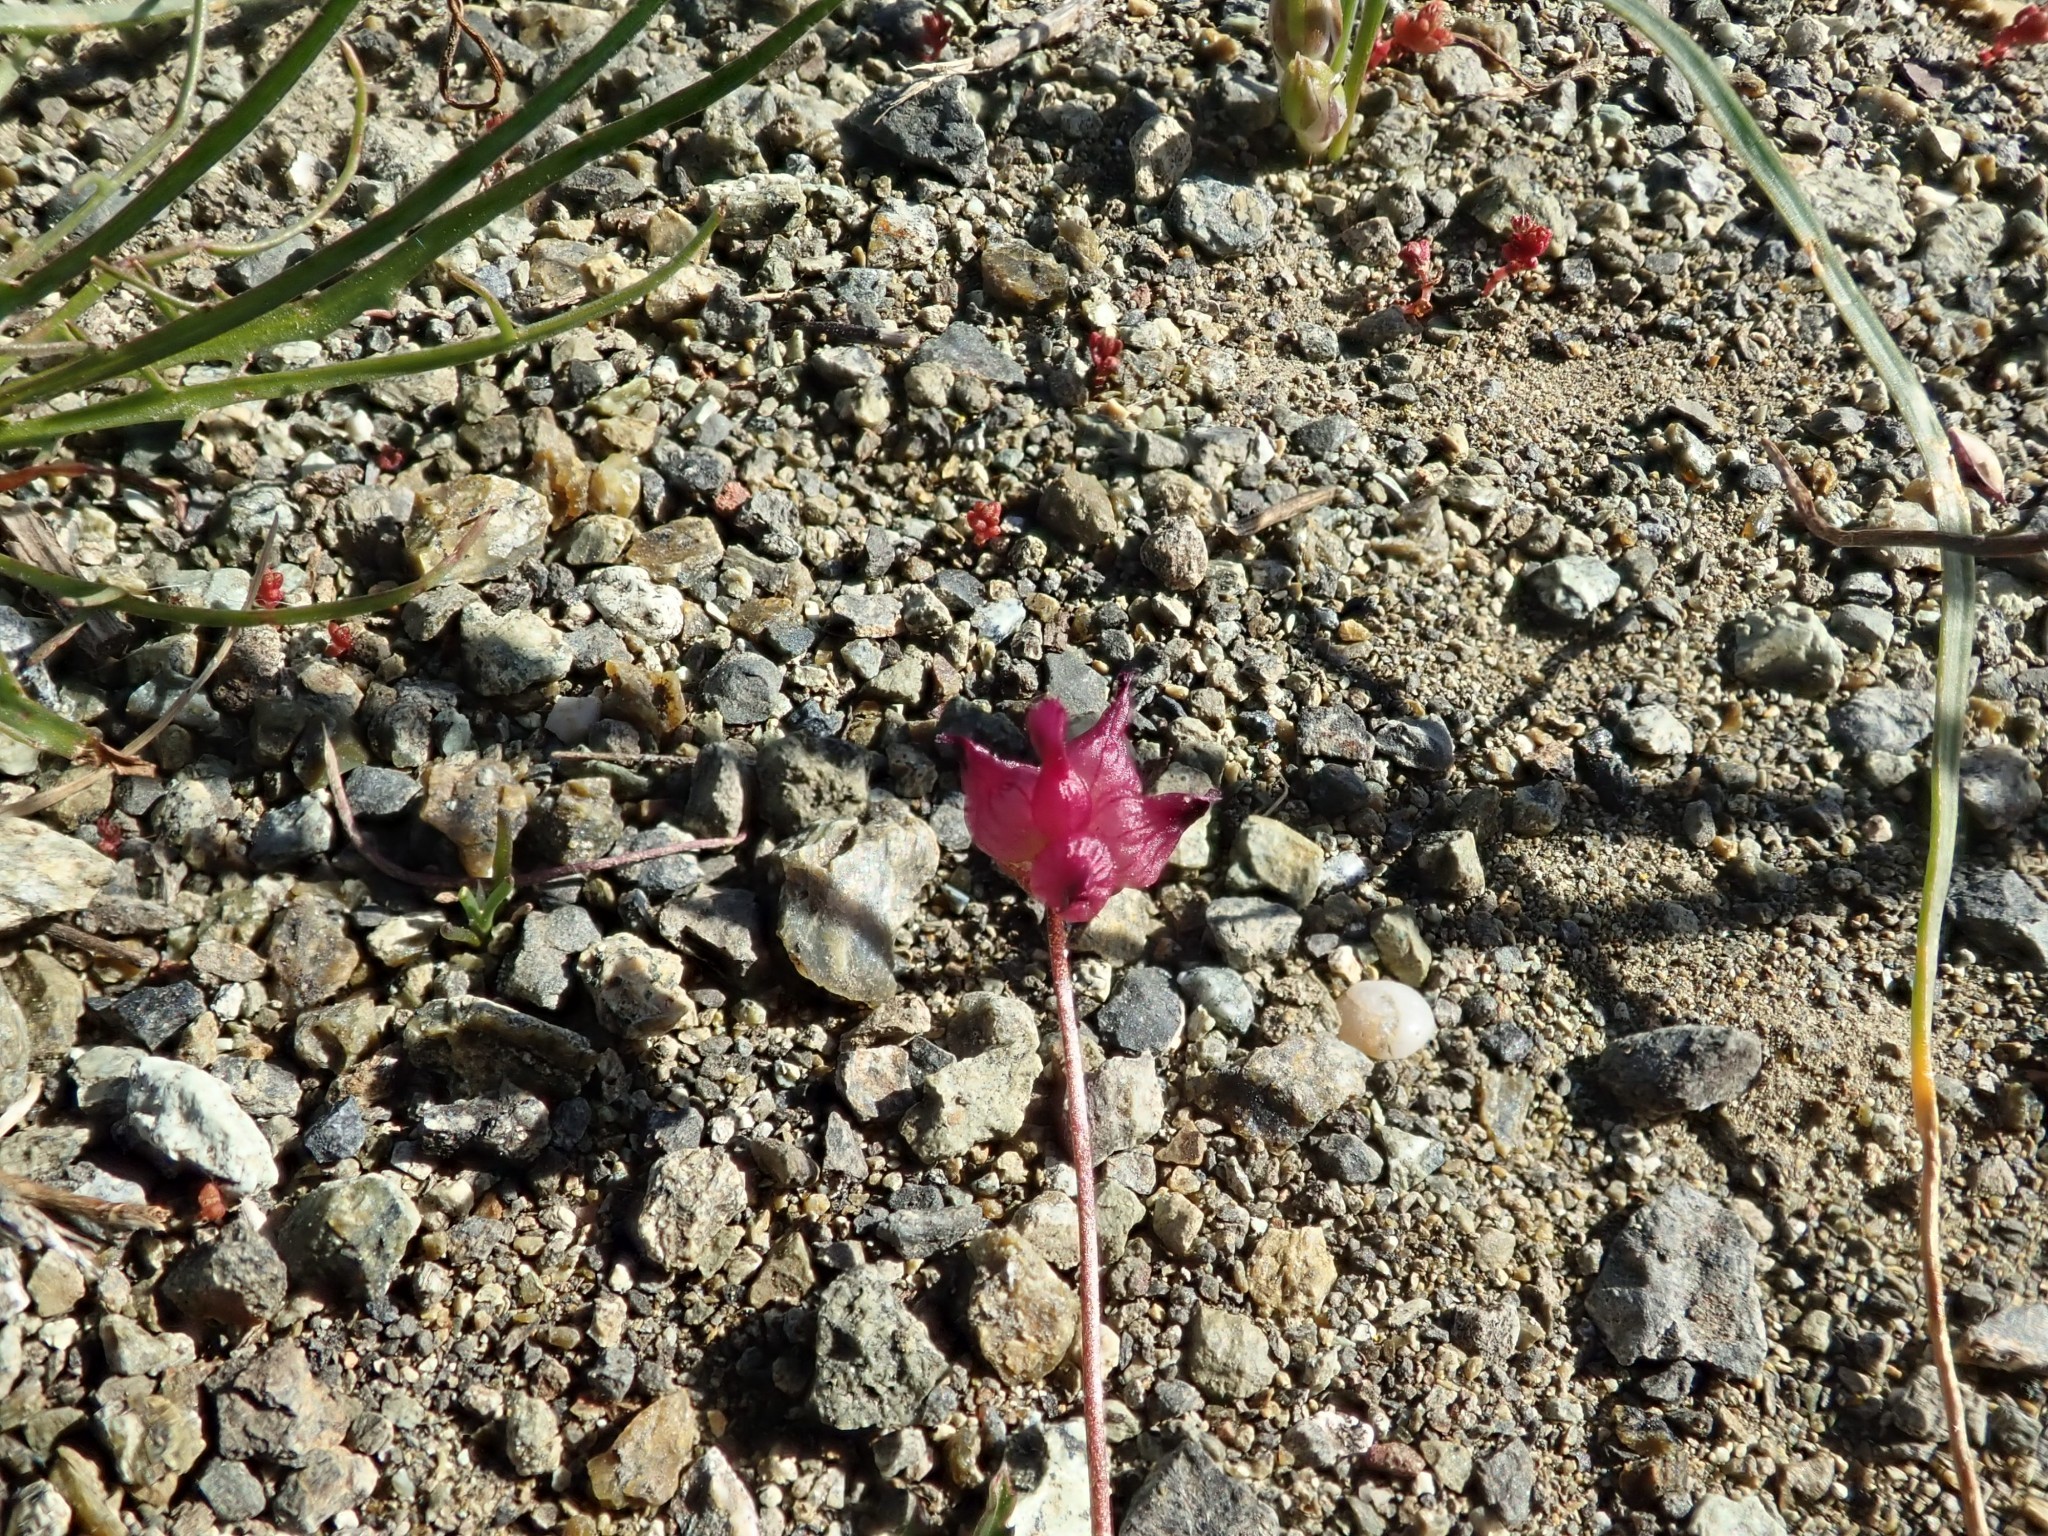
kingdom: Plantae
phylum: Tracheophyta
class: Magnoliopsida
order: Fabales
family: Fabaceae
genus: Trifolium
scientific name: Trifolium depauperatum
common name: Poverty clover
